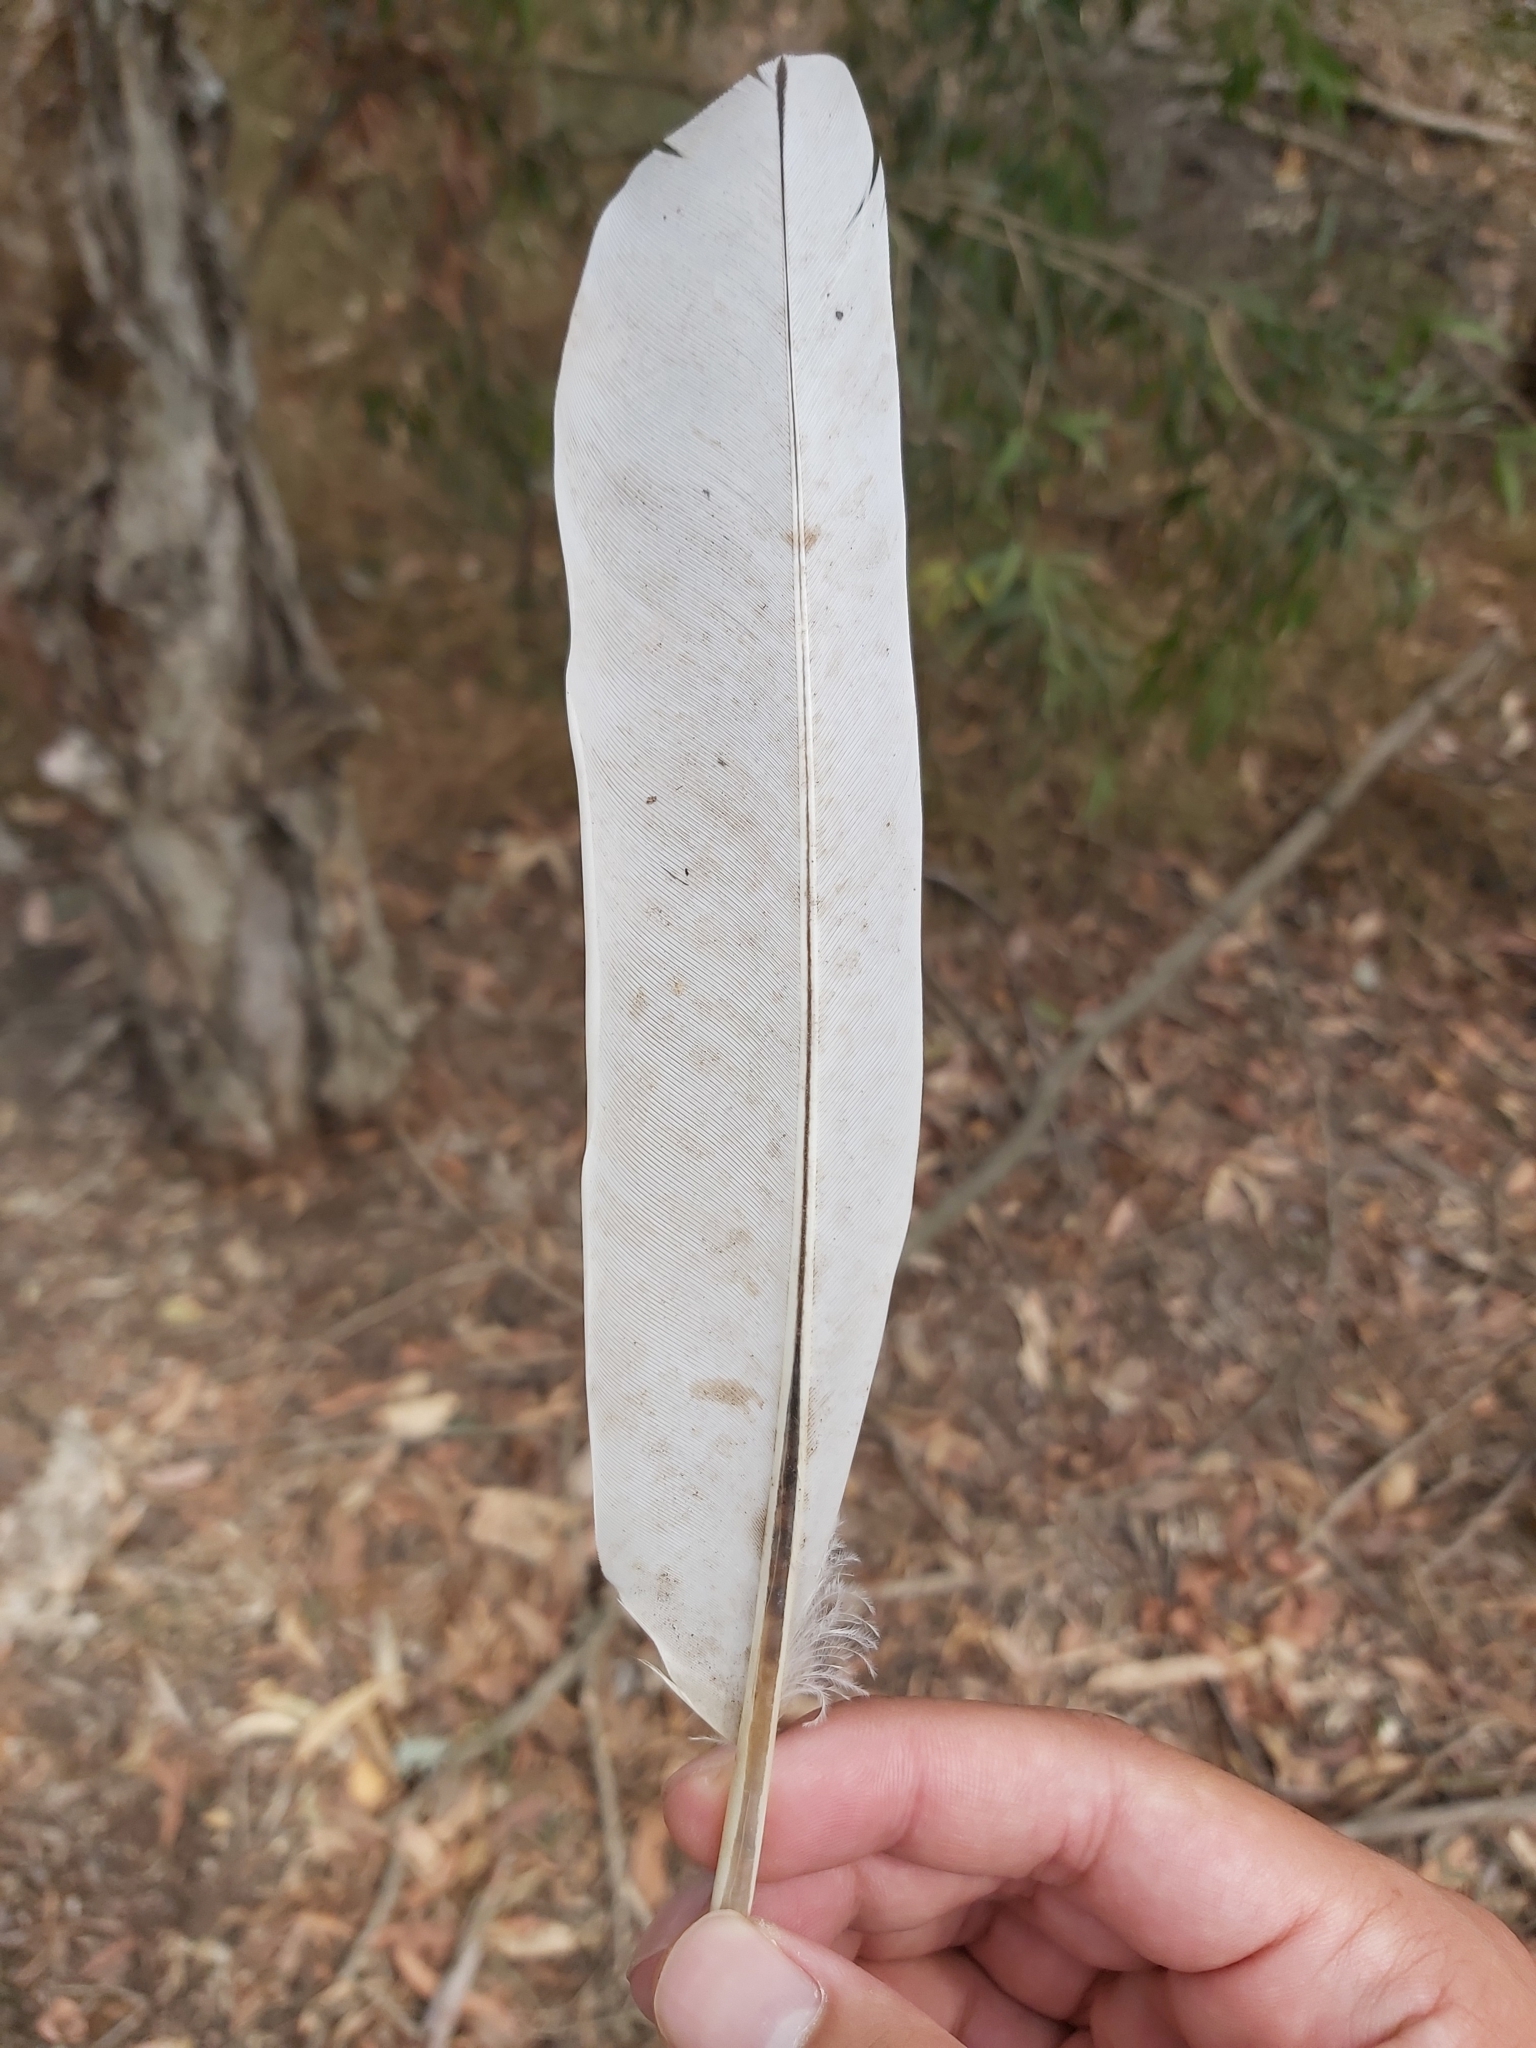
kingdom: Animalia
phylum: Chordata
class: Aves
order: Pelecaniformes
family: Threskiornithidae
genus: Threskiornis
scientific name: Threskiornis molucca
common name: Australian white ibis
